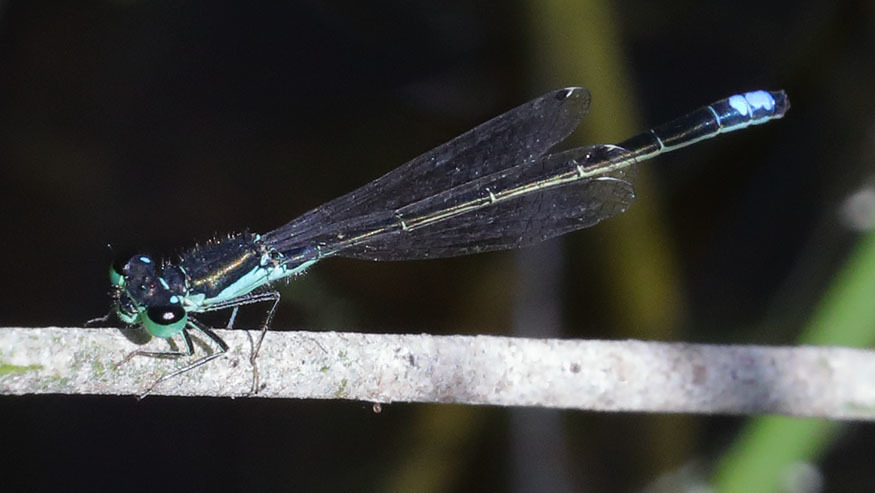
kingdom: Animalia
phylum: Arthropoda
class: Insecta
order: Odonata
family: Coenagrionidae
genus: Ischnura
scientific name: Ischnura denticollis
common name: Black-fronted forktail
